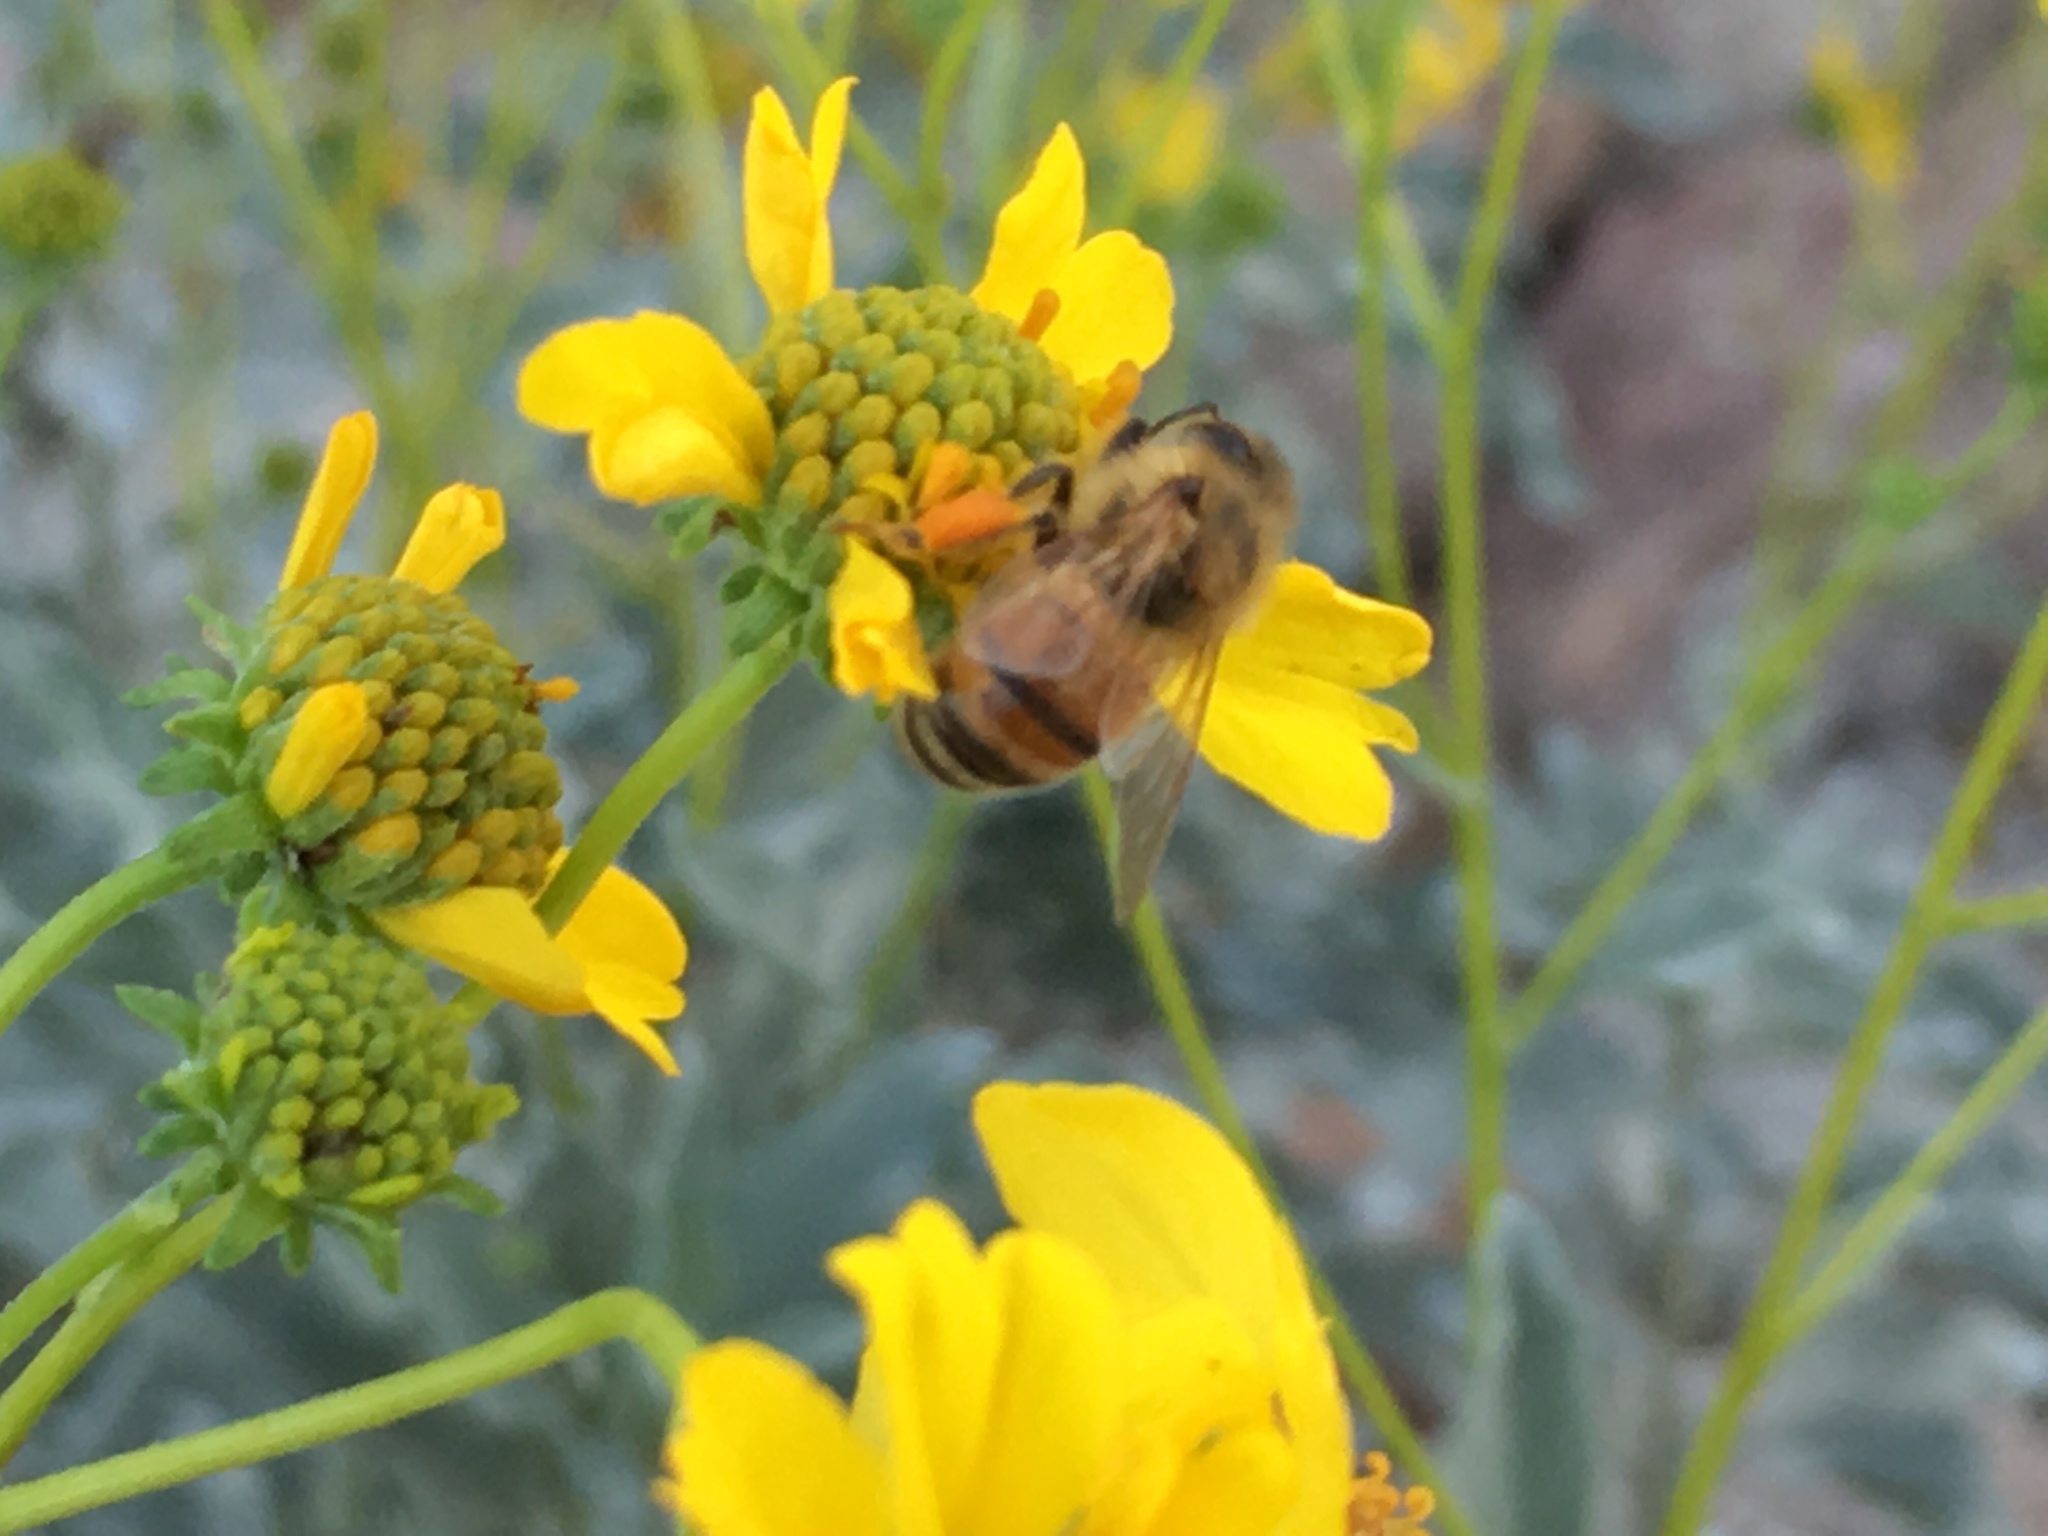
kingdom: Animalia
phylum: Arthropoda
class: Insecta
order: Hymenoptera
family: Apidae
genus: Apis
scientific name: Apis mellifera
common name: Honey bee
